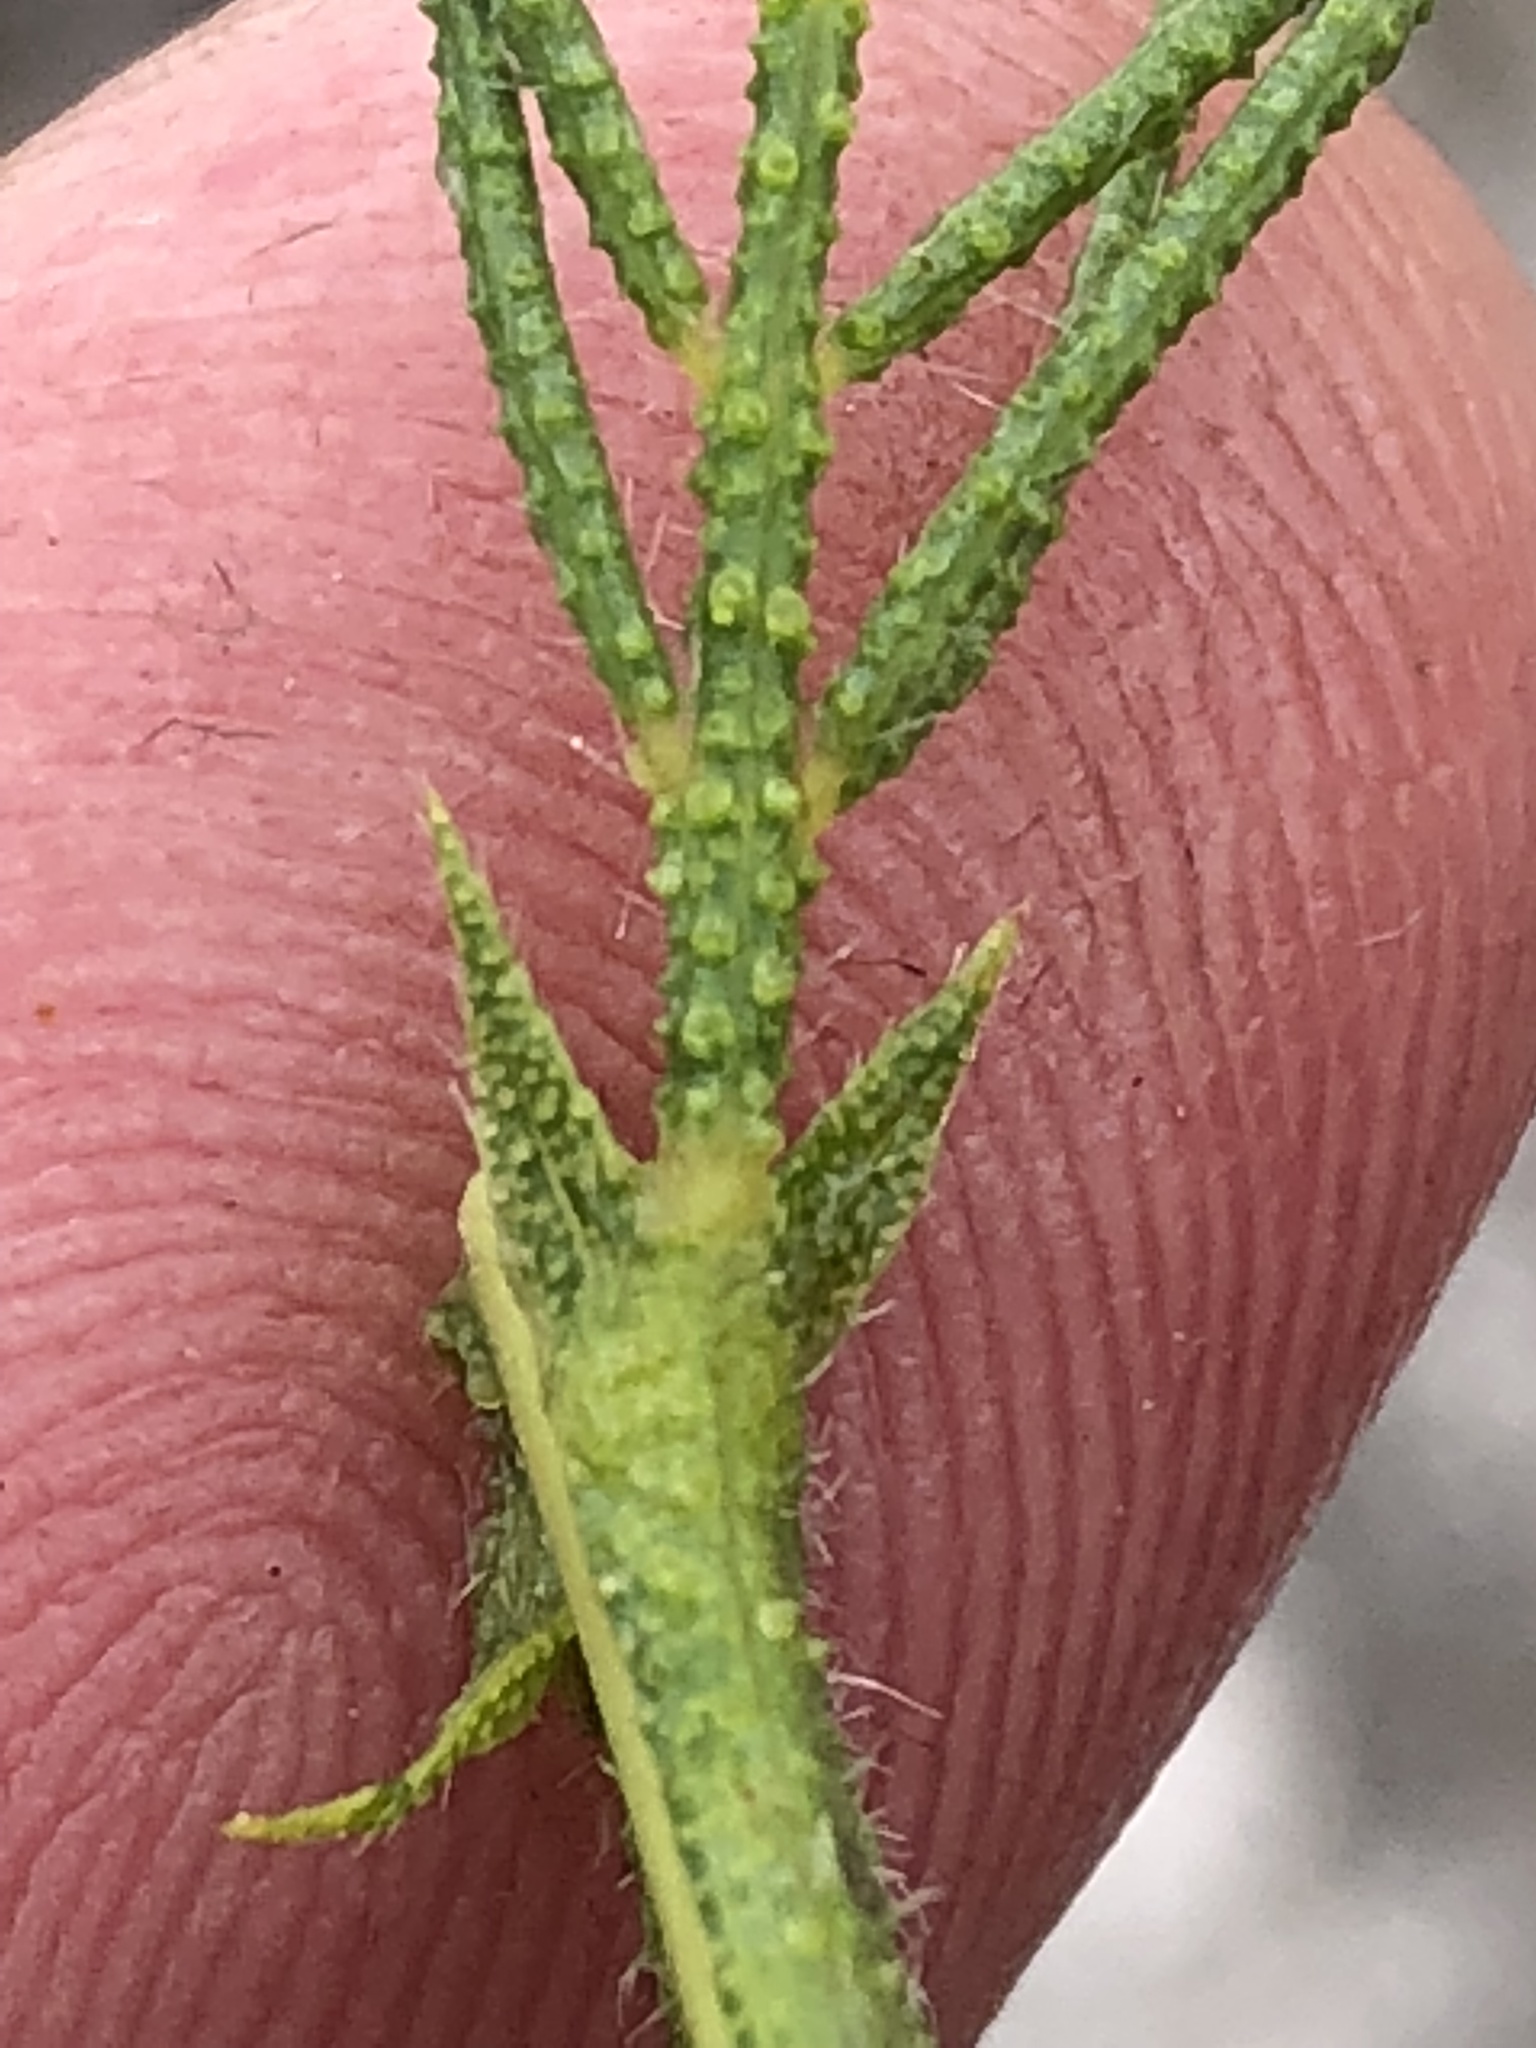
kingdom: Plantae
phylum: Tracheophyta
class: Magnoliopsida
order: Fabales
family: Fabaceae
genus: Psoralea
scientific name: Psoralea kougaensis
